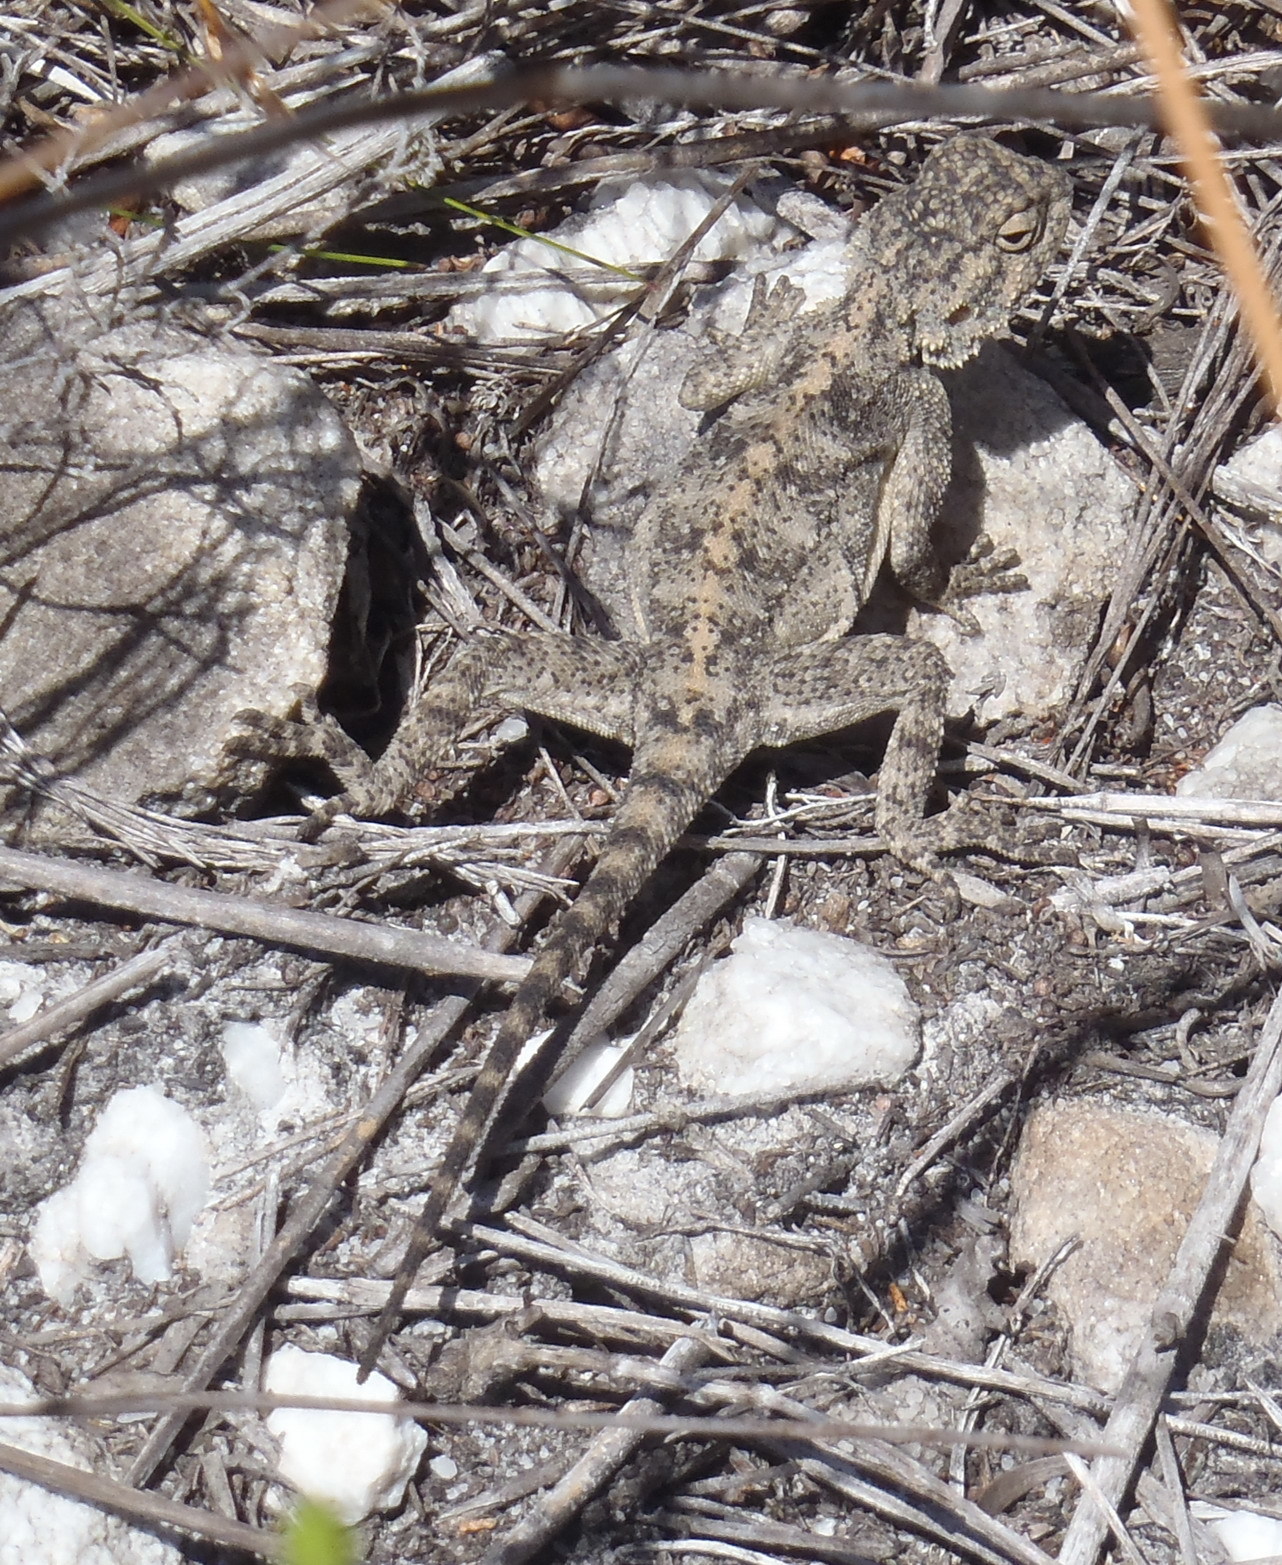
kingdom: Animalia
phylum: Chordata
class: Squamata
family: Agamidae
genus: Agama
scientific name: Agama atra
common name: Southern african rock agama
